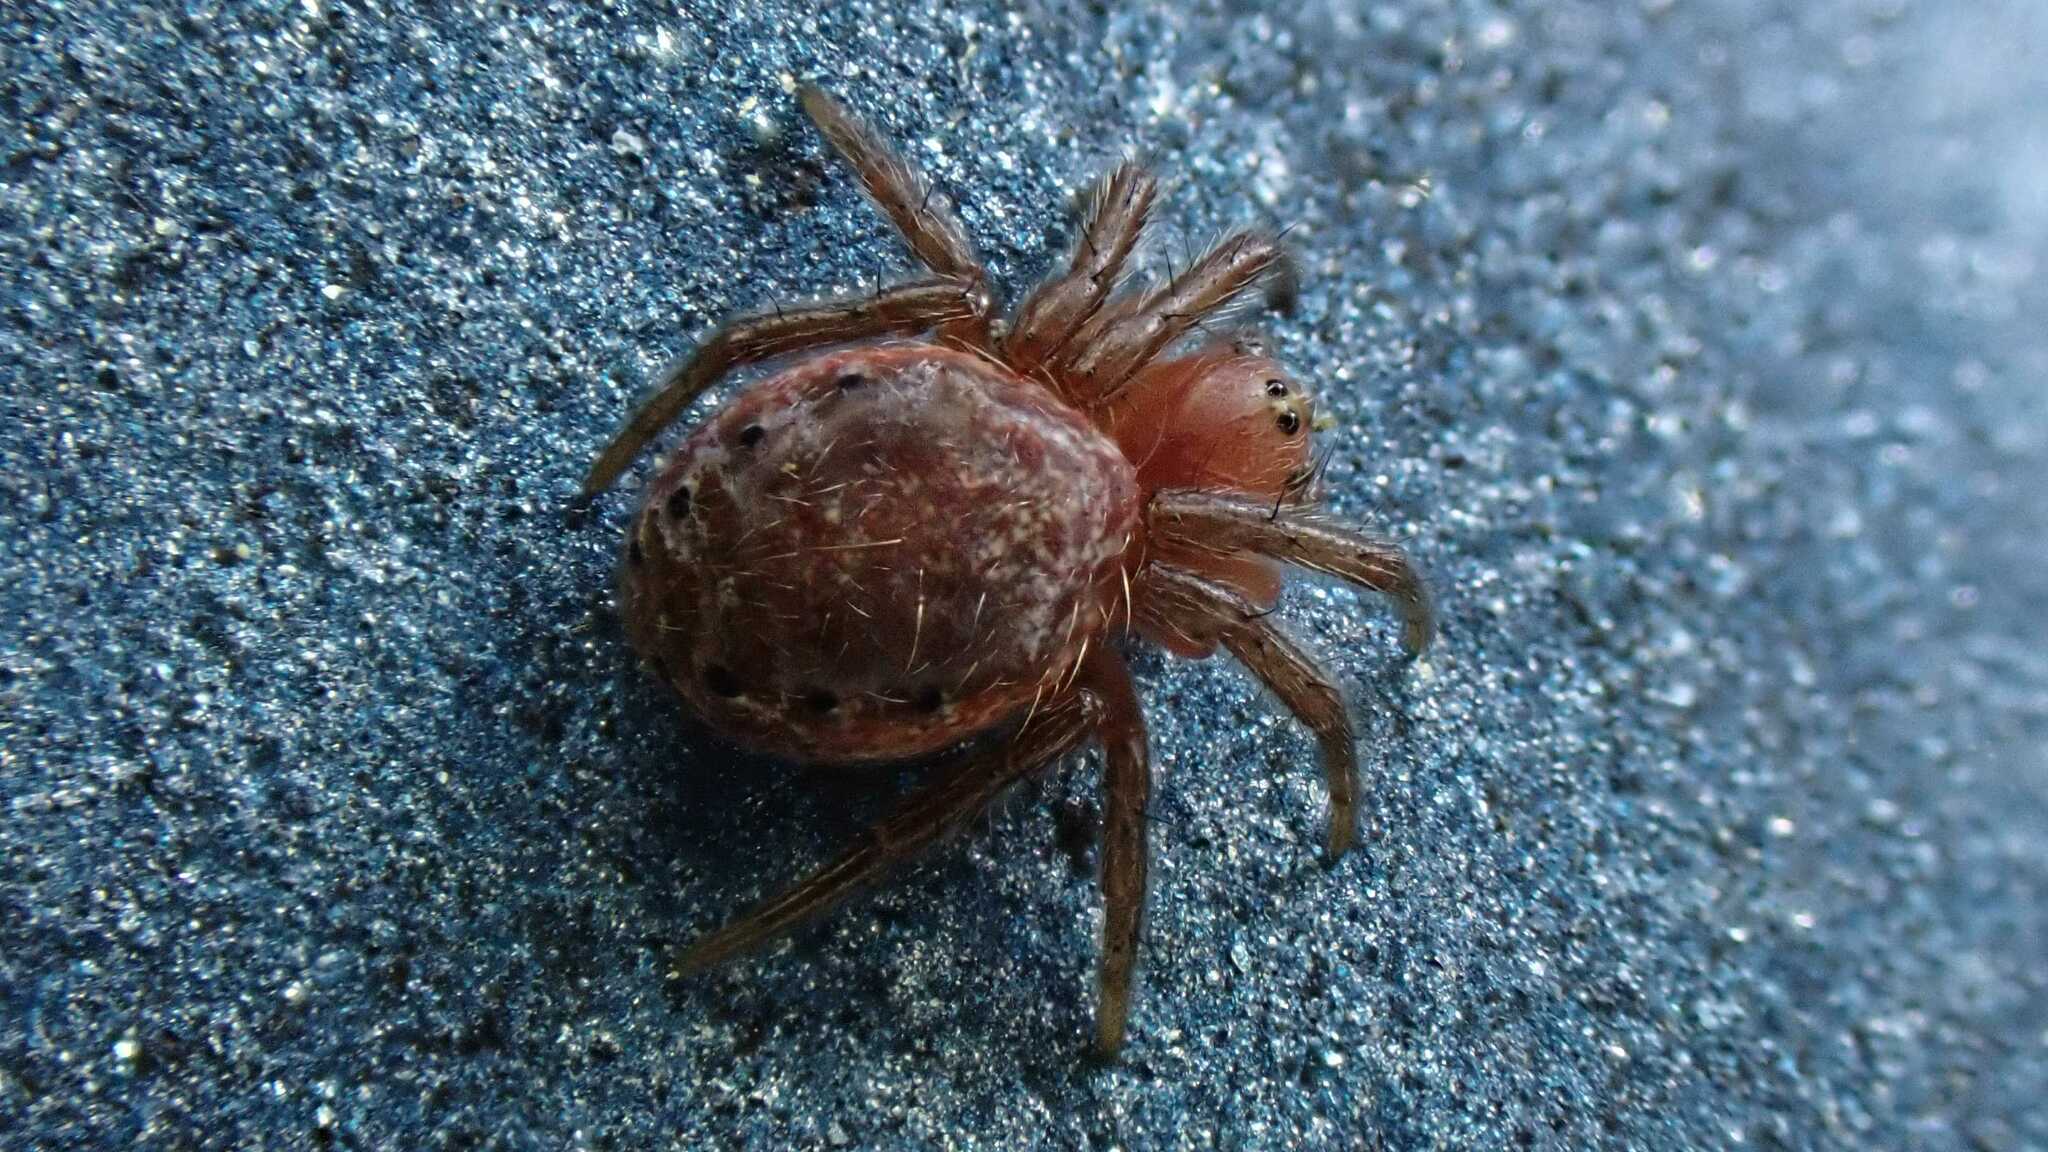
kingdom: Animalia
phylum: Arthropoda
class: Arachnida
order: Araneae
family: Araneidae
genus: Araniella
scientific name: Araniella
